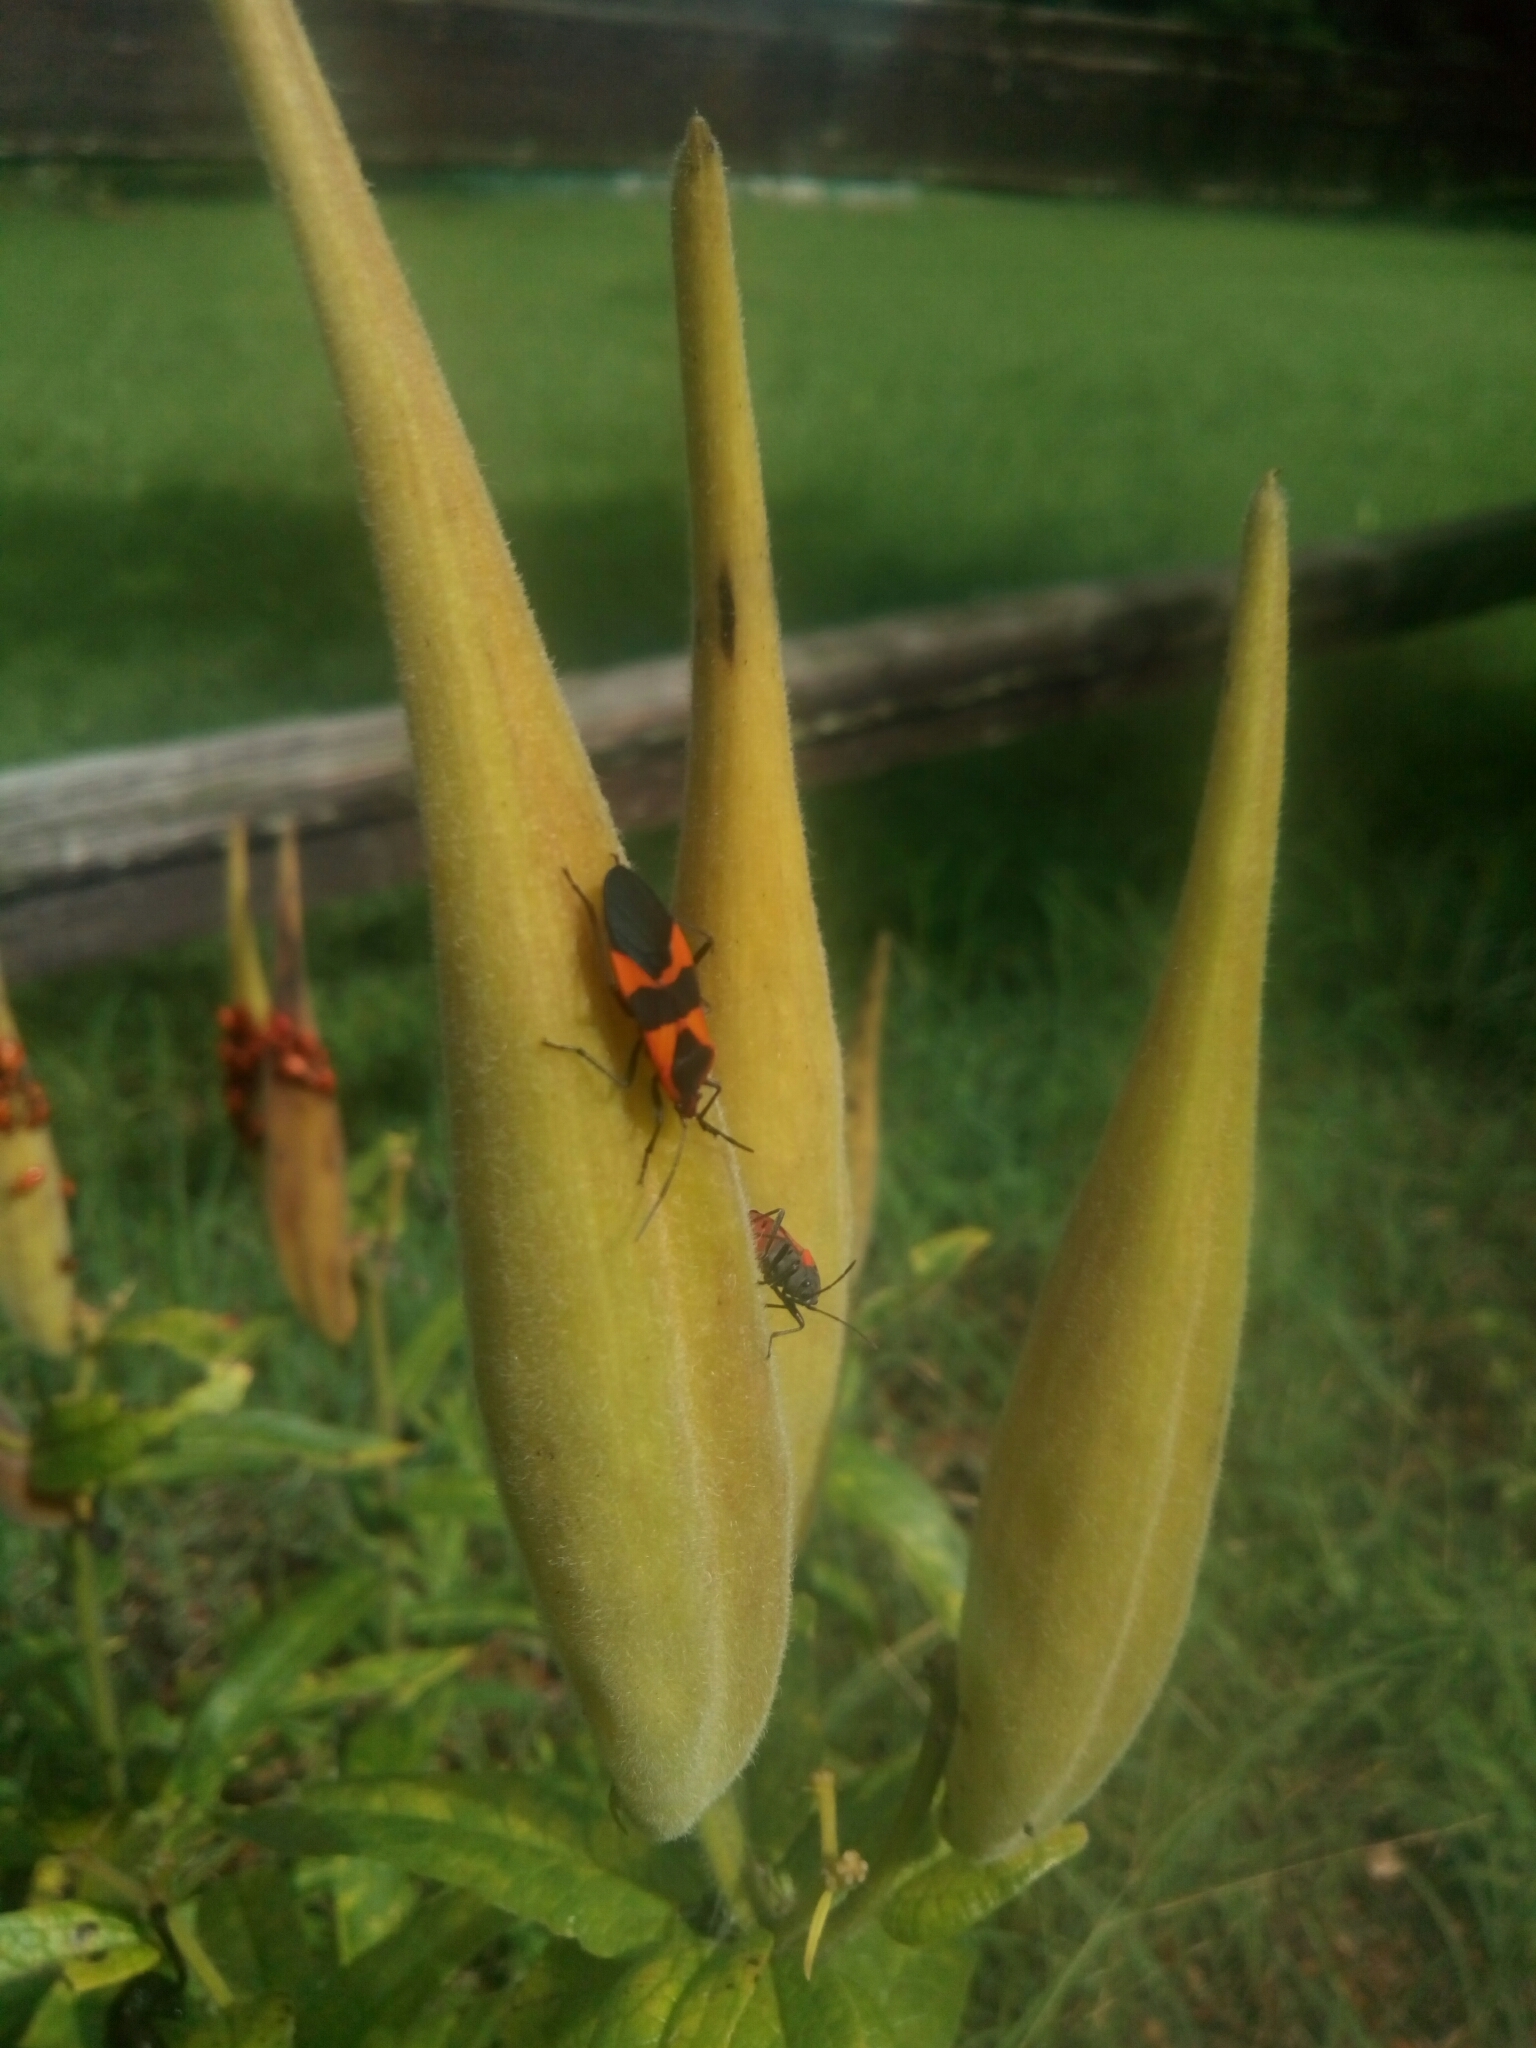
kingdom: Animalia
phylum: Arthropoda
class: Insecta
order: Hemiptera
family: Lygaeidae
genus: Oncopeltus
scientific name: Oncopeltus fasciatus
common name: Large milkweed bug
